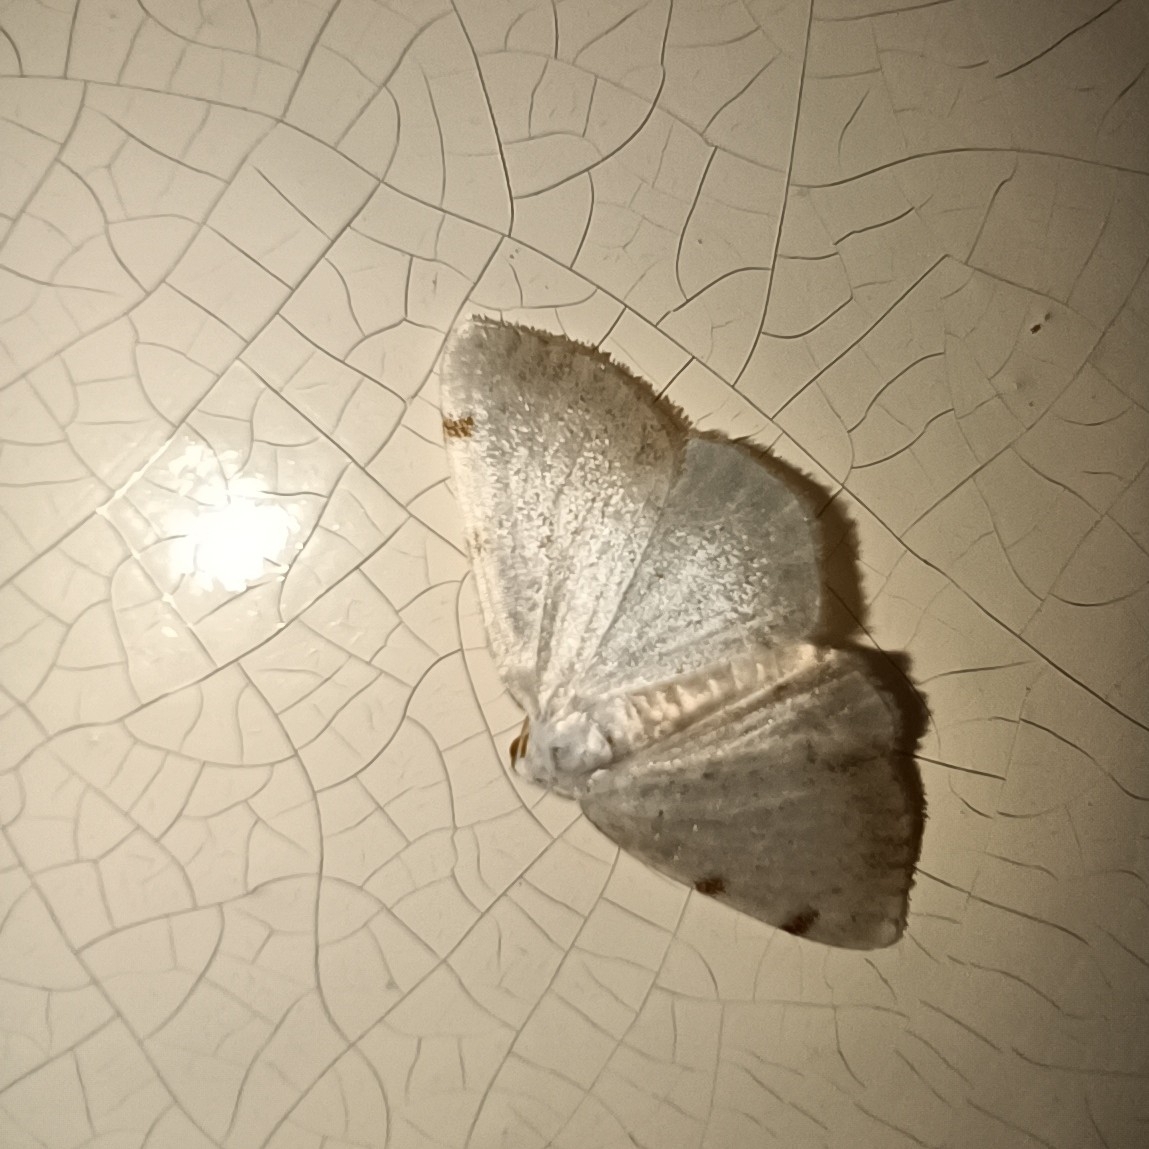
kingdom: Animalia
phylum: Arthropoda
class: Insecta
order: Lepidoptera
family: Geometridae
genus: Lomographa
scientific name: Lomographa bimaculata
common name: White-pinion spotted
